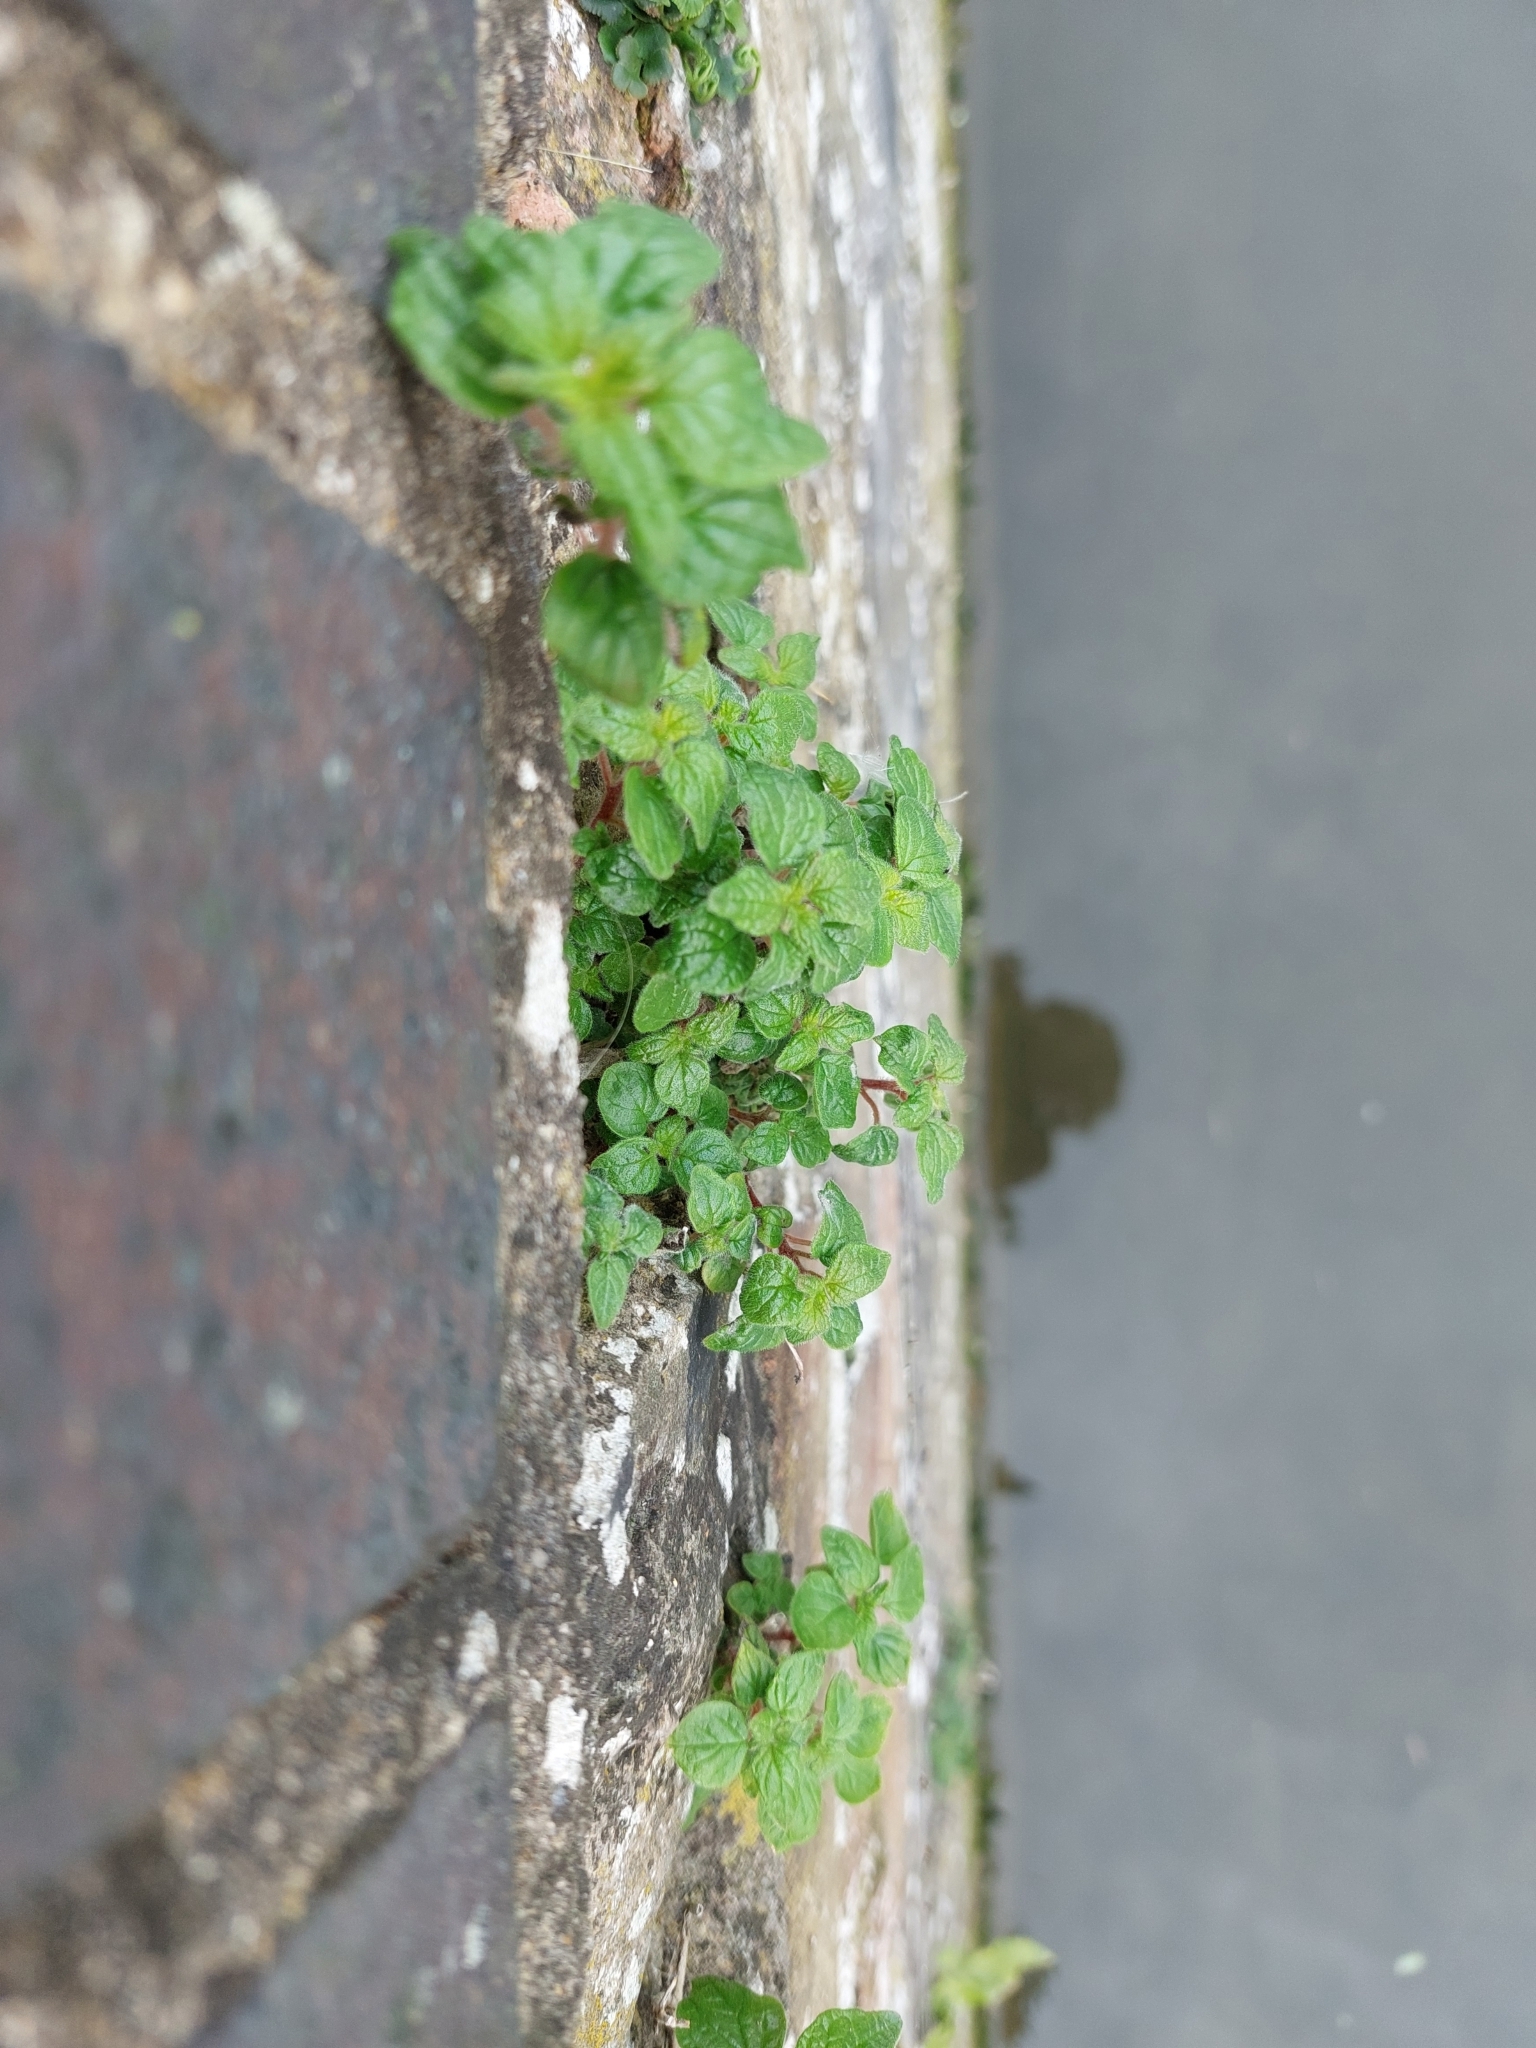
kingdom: Plantae
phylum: Tracheophyta
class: Magnoliopsida
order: Rosales
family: Urticaceae
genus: Parietaria
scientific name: Parietaria judaica
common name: Pellitory-of-the-wall
